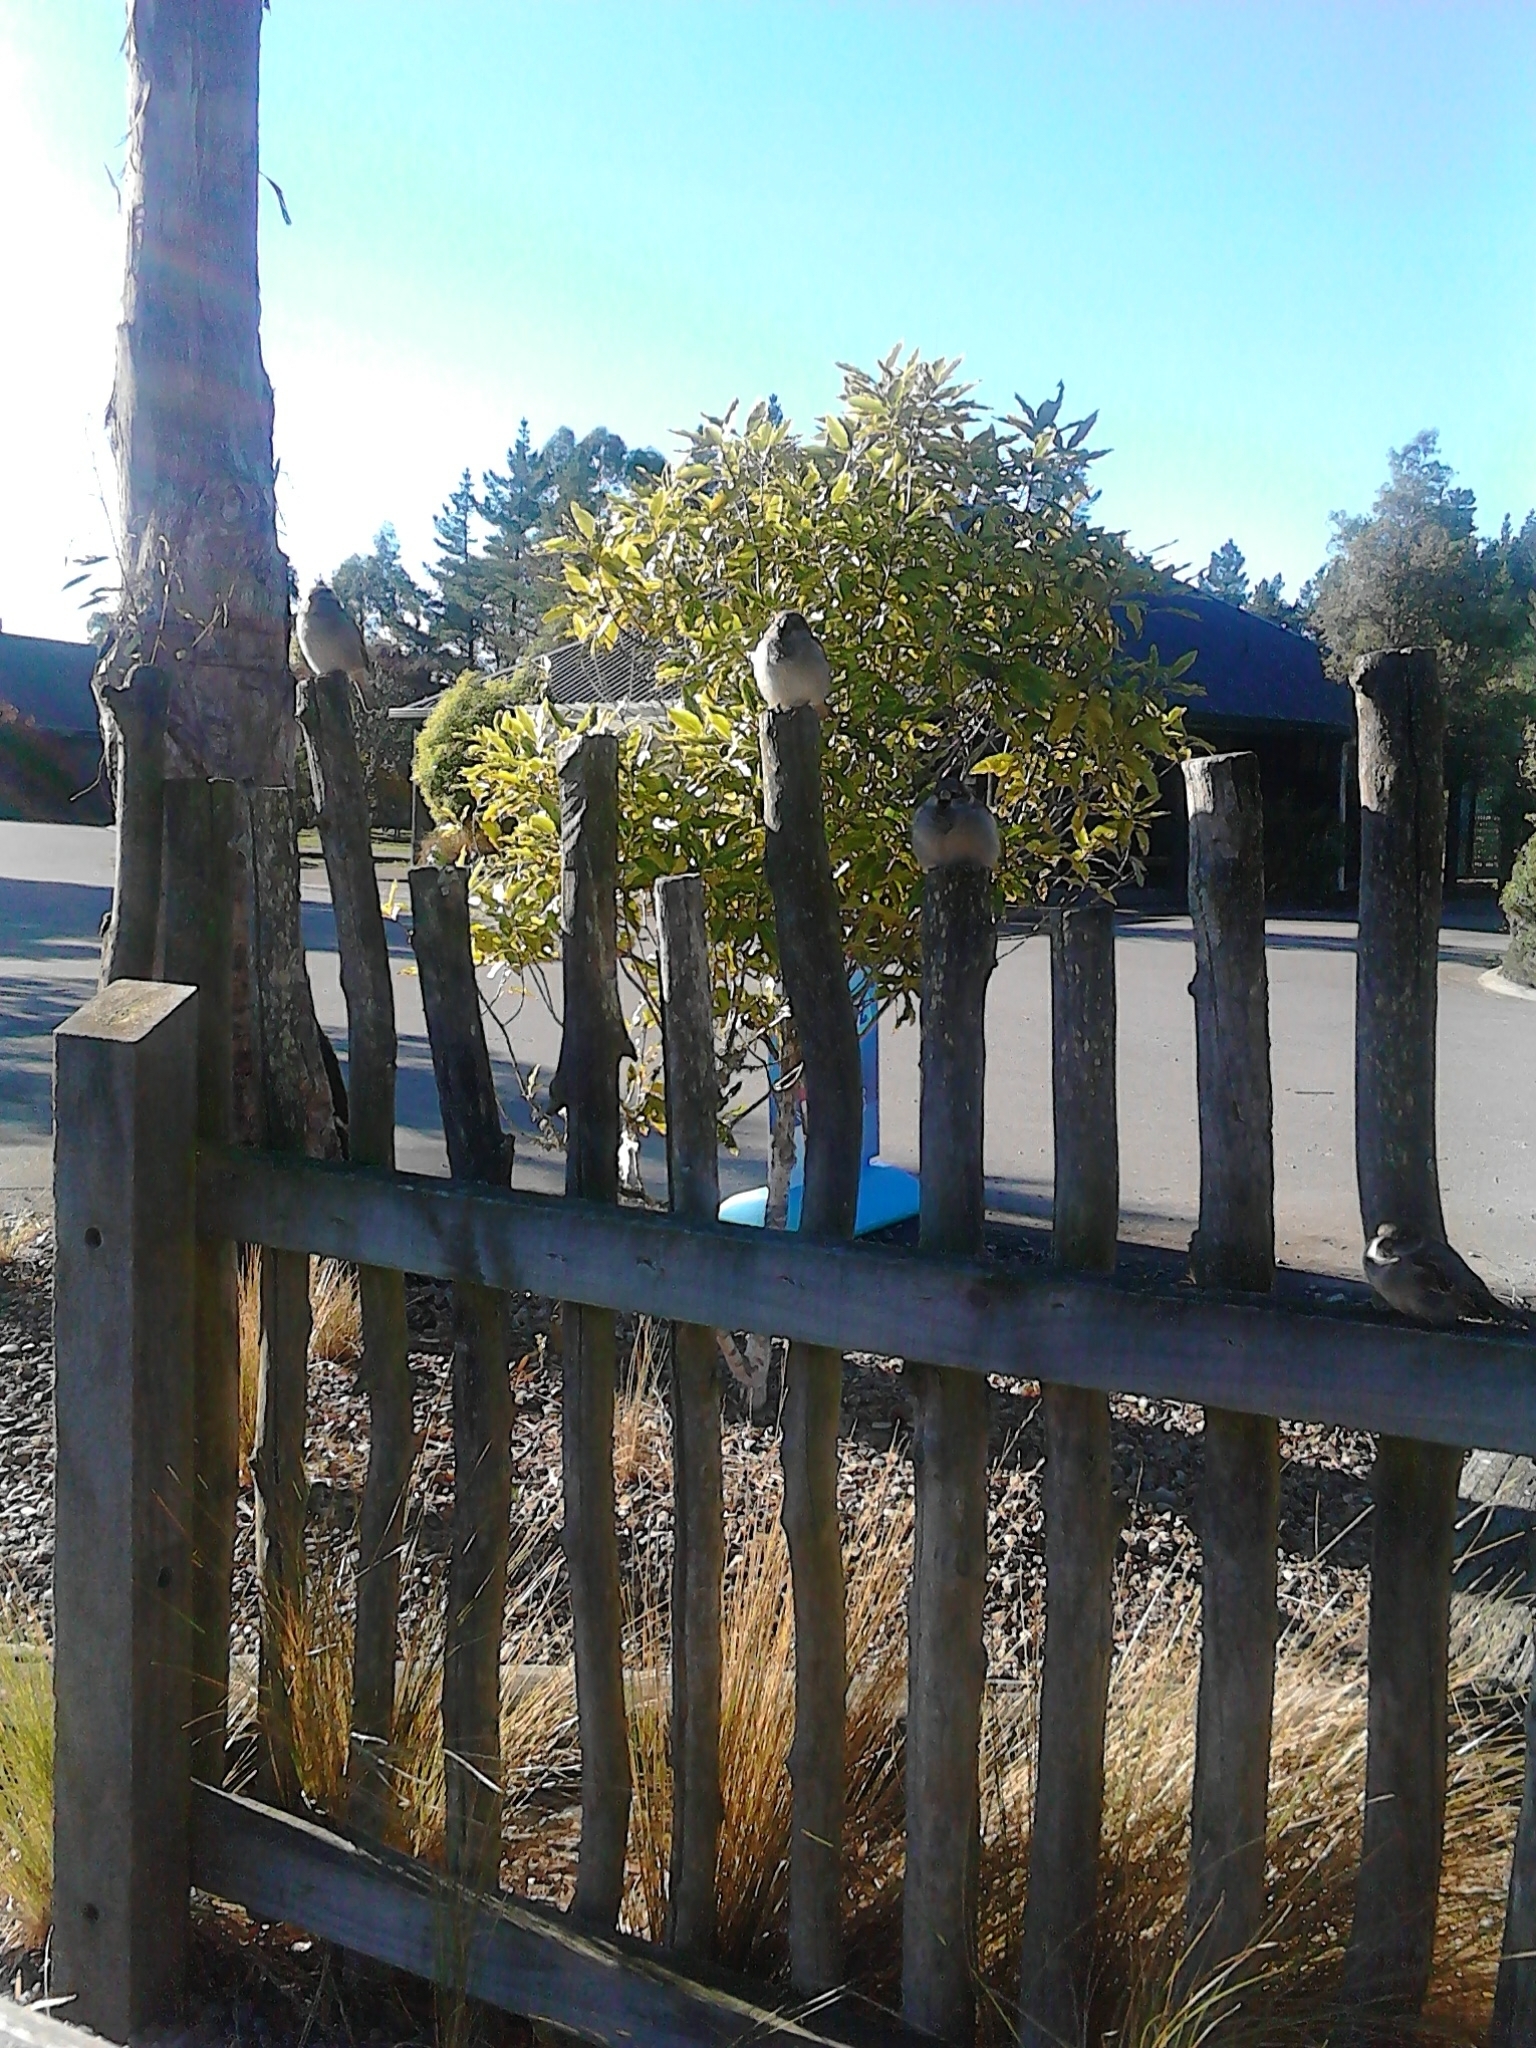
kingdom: Animalia
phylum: Chordata
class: Aves
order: Passeriformes
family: Passeridae
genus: Passer
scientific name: Passer domesticus
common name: House sparrow
